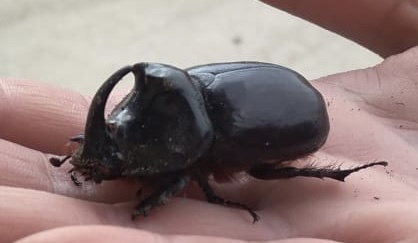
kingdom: Animalia
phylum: Arthropoda
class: Insecta
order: Coleoptera
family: Scarabaeidae
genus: Oryctes
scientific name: Oryctes nasicornis
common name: European rhinoceros beetle
